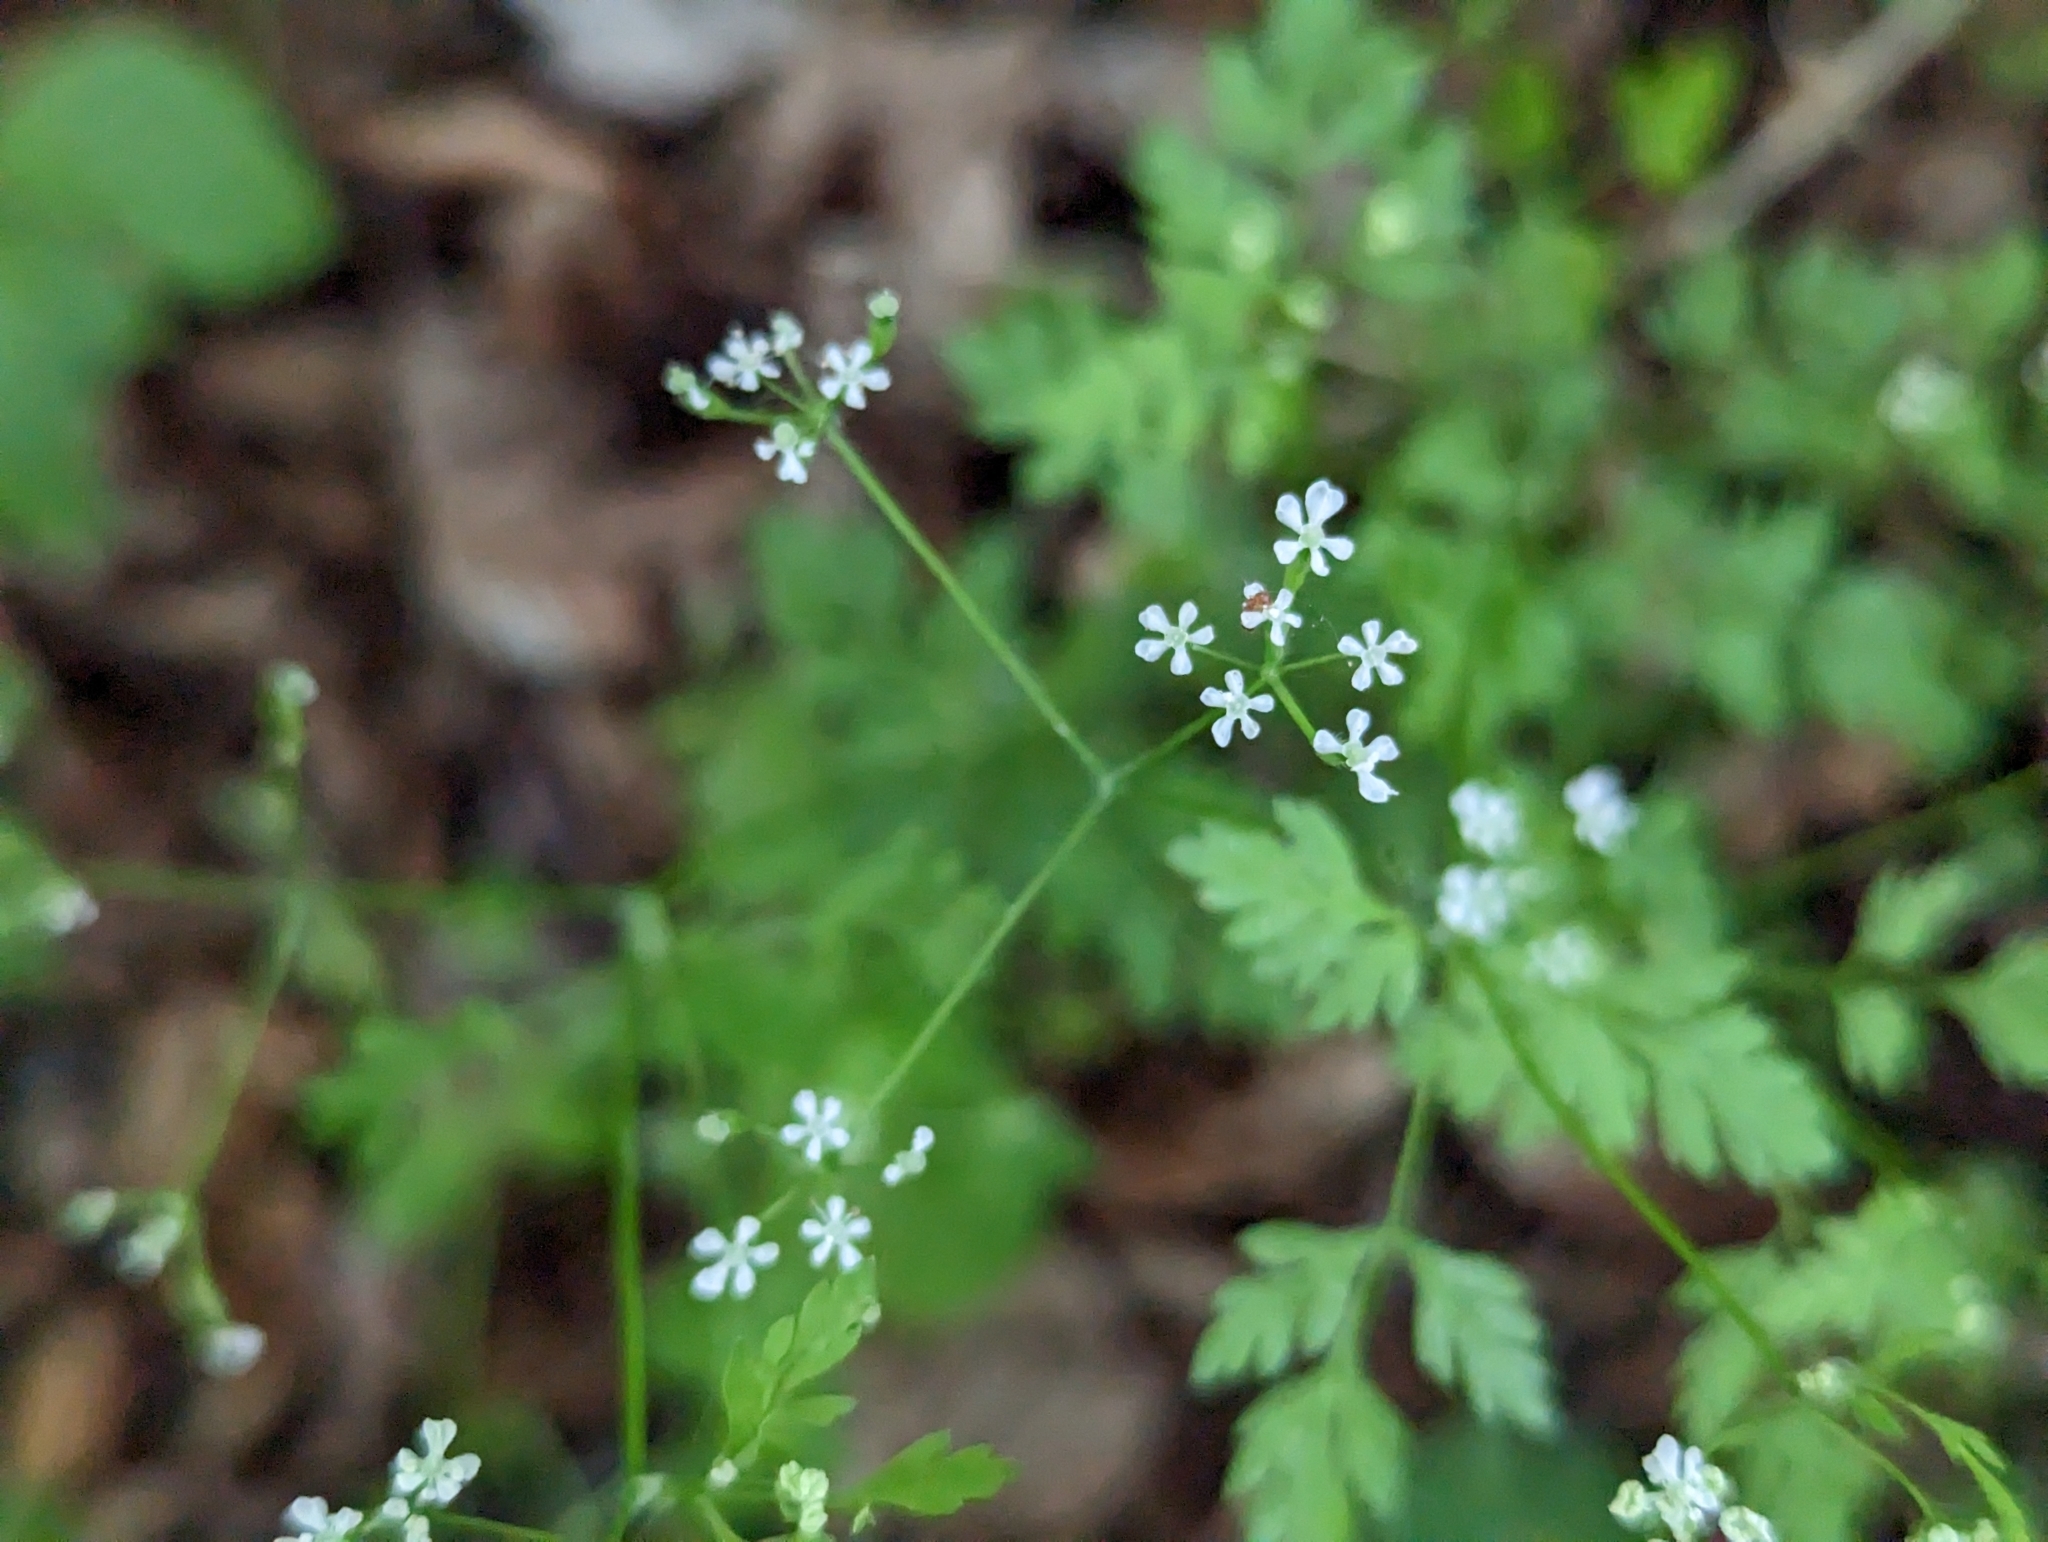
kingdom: Plantae
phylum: Tracheophyta
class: Magnoliopsida
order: Apiales
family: Apiaceae
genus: Anthriscus
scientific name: Anthriscus cerefolium
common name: Garden chervil
